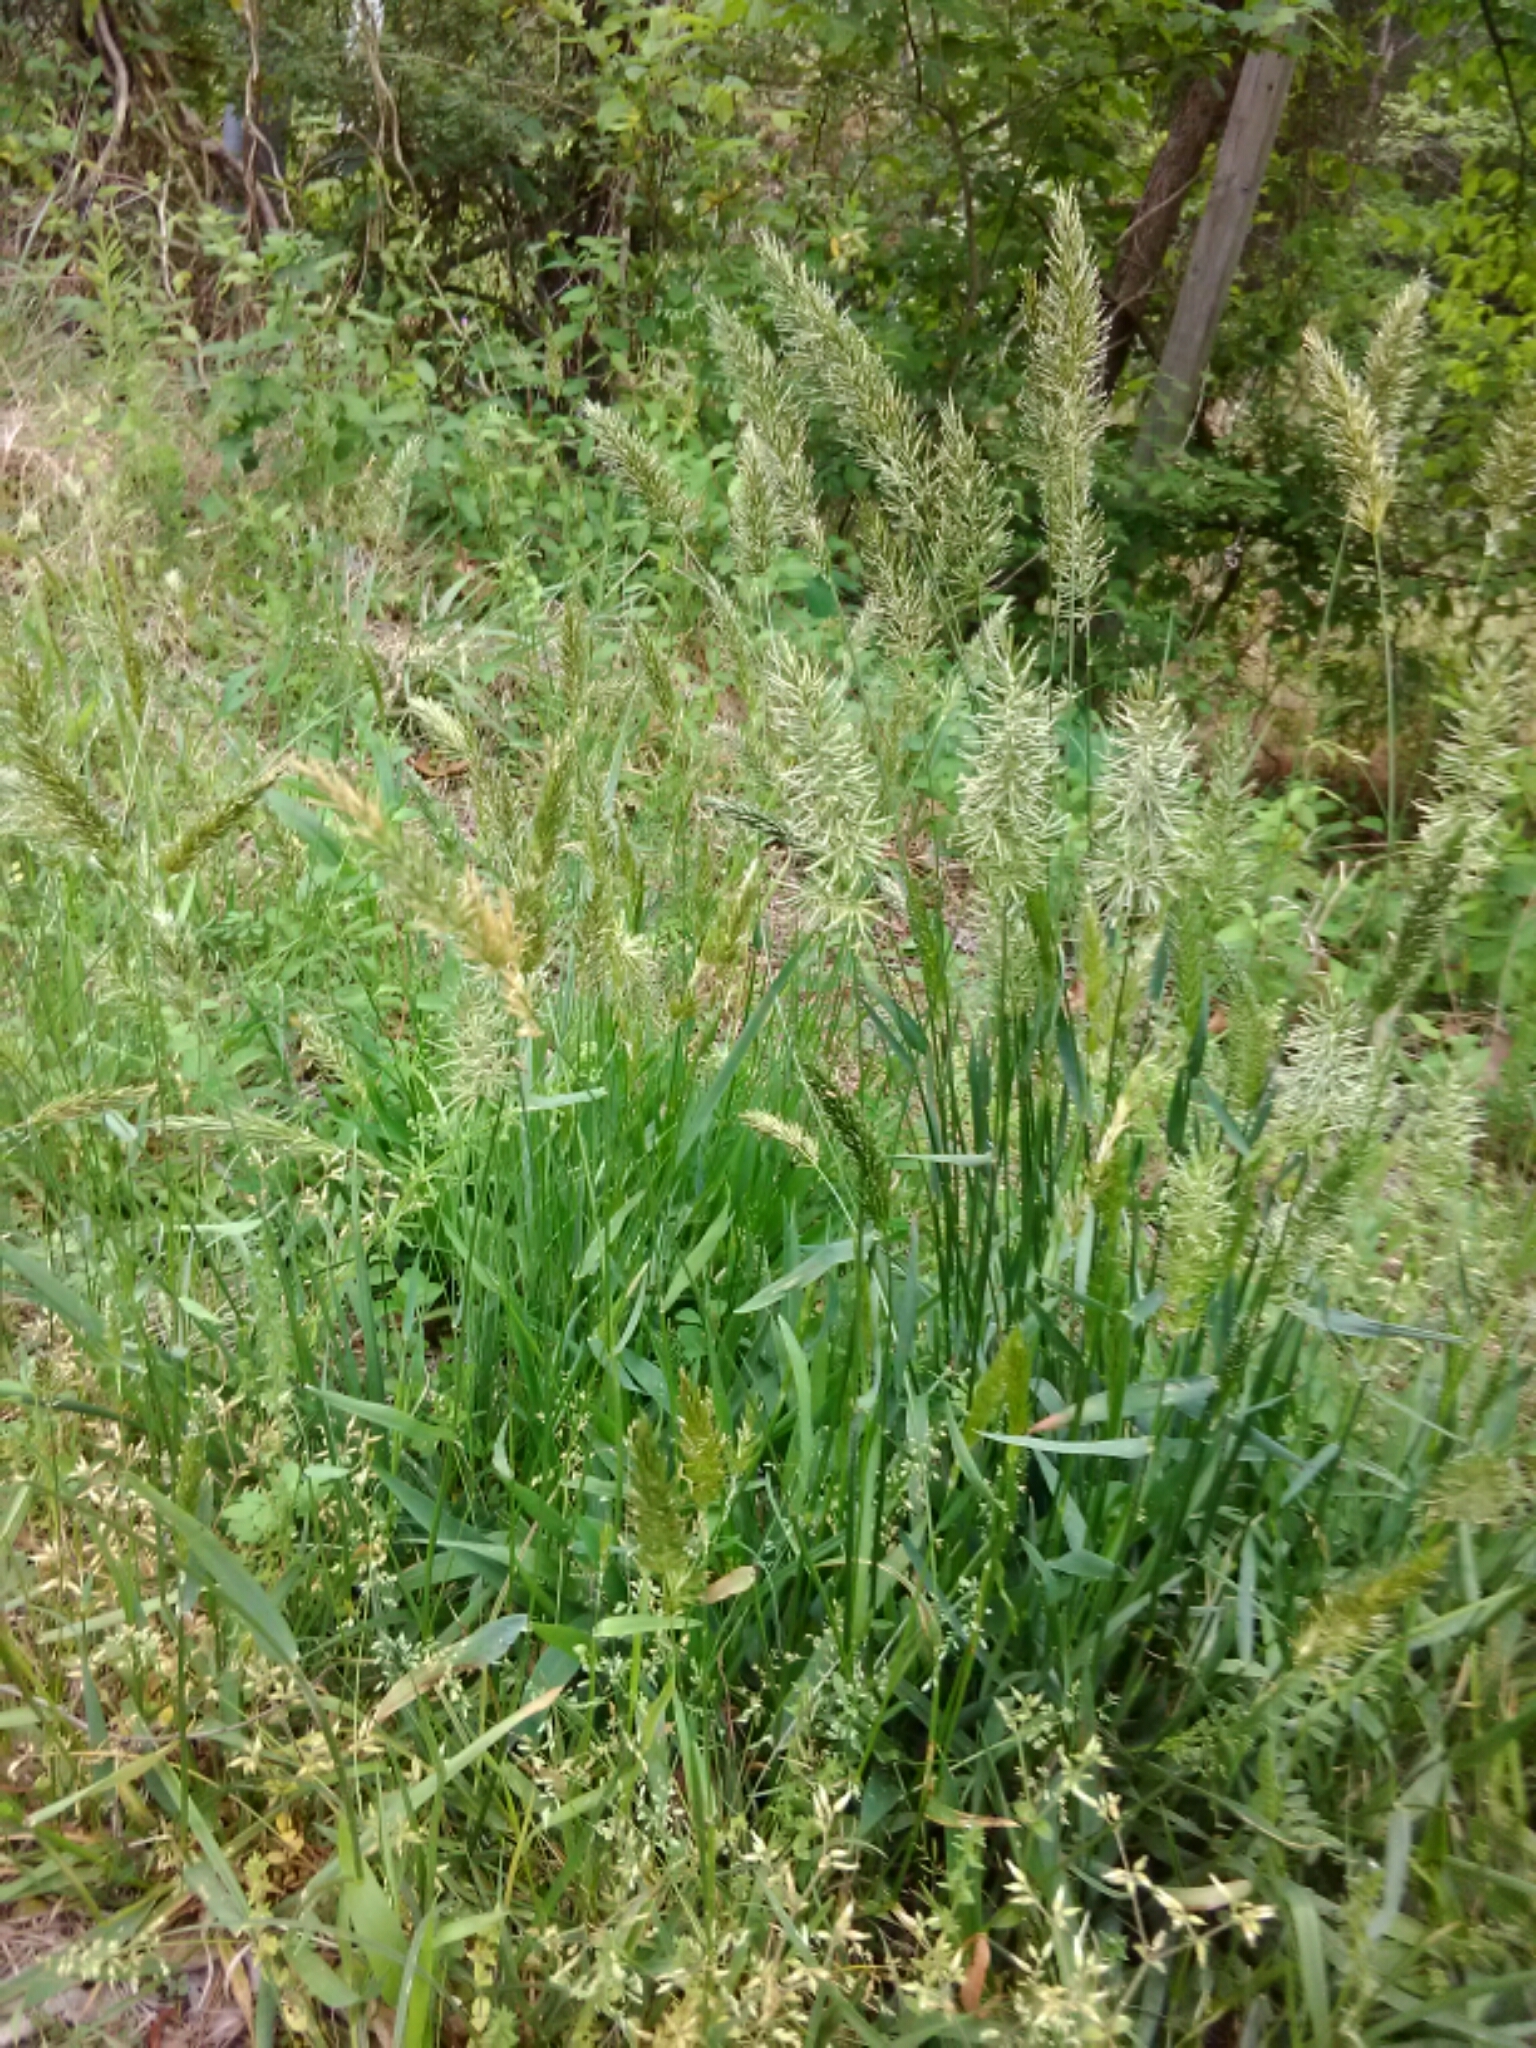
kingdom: Plantae
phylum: Tracheophyta
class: Liliopsida
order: Poales
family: Poaceae
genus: Anthoxanthum
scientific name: Anthoxanthum odoratum
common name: Sweet vernalgrass
